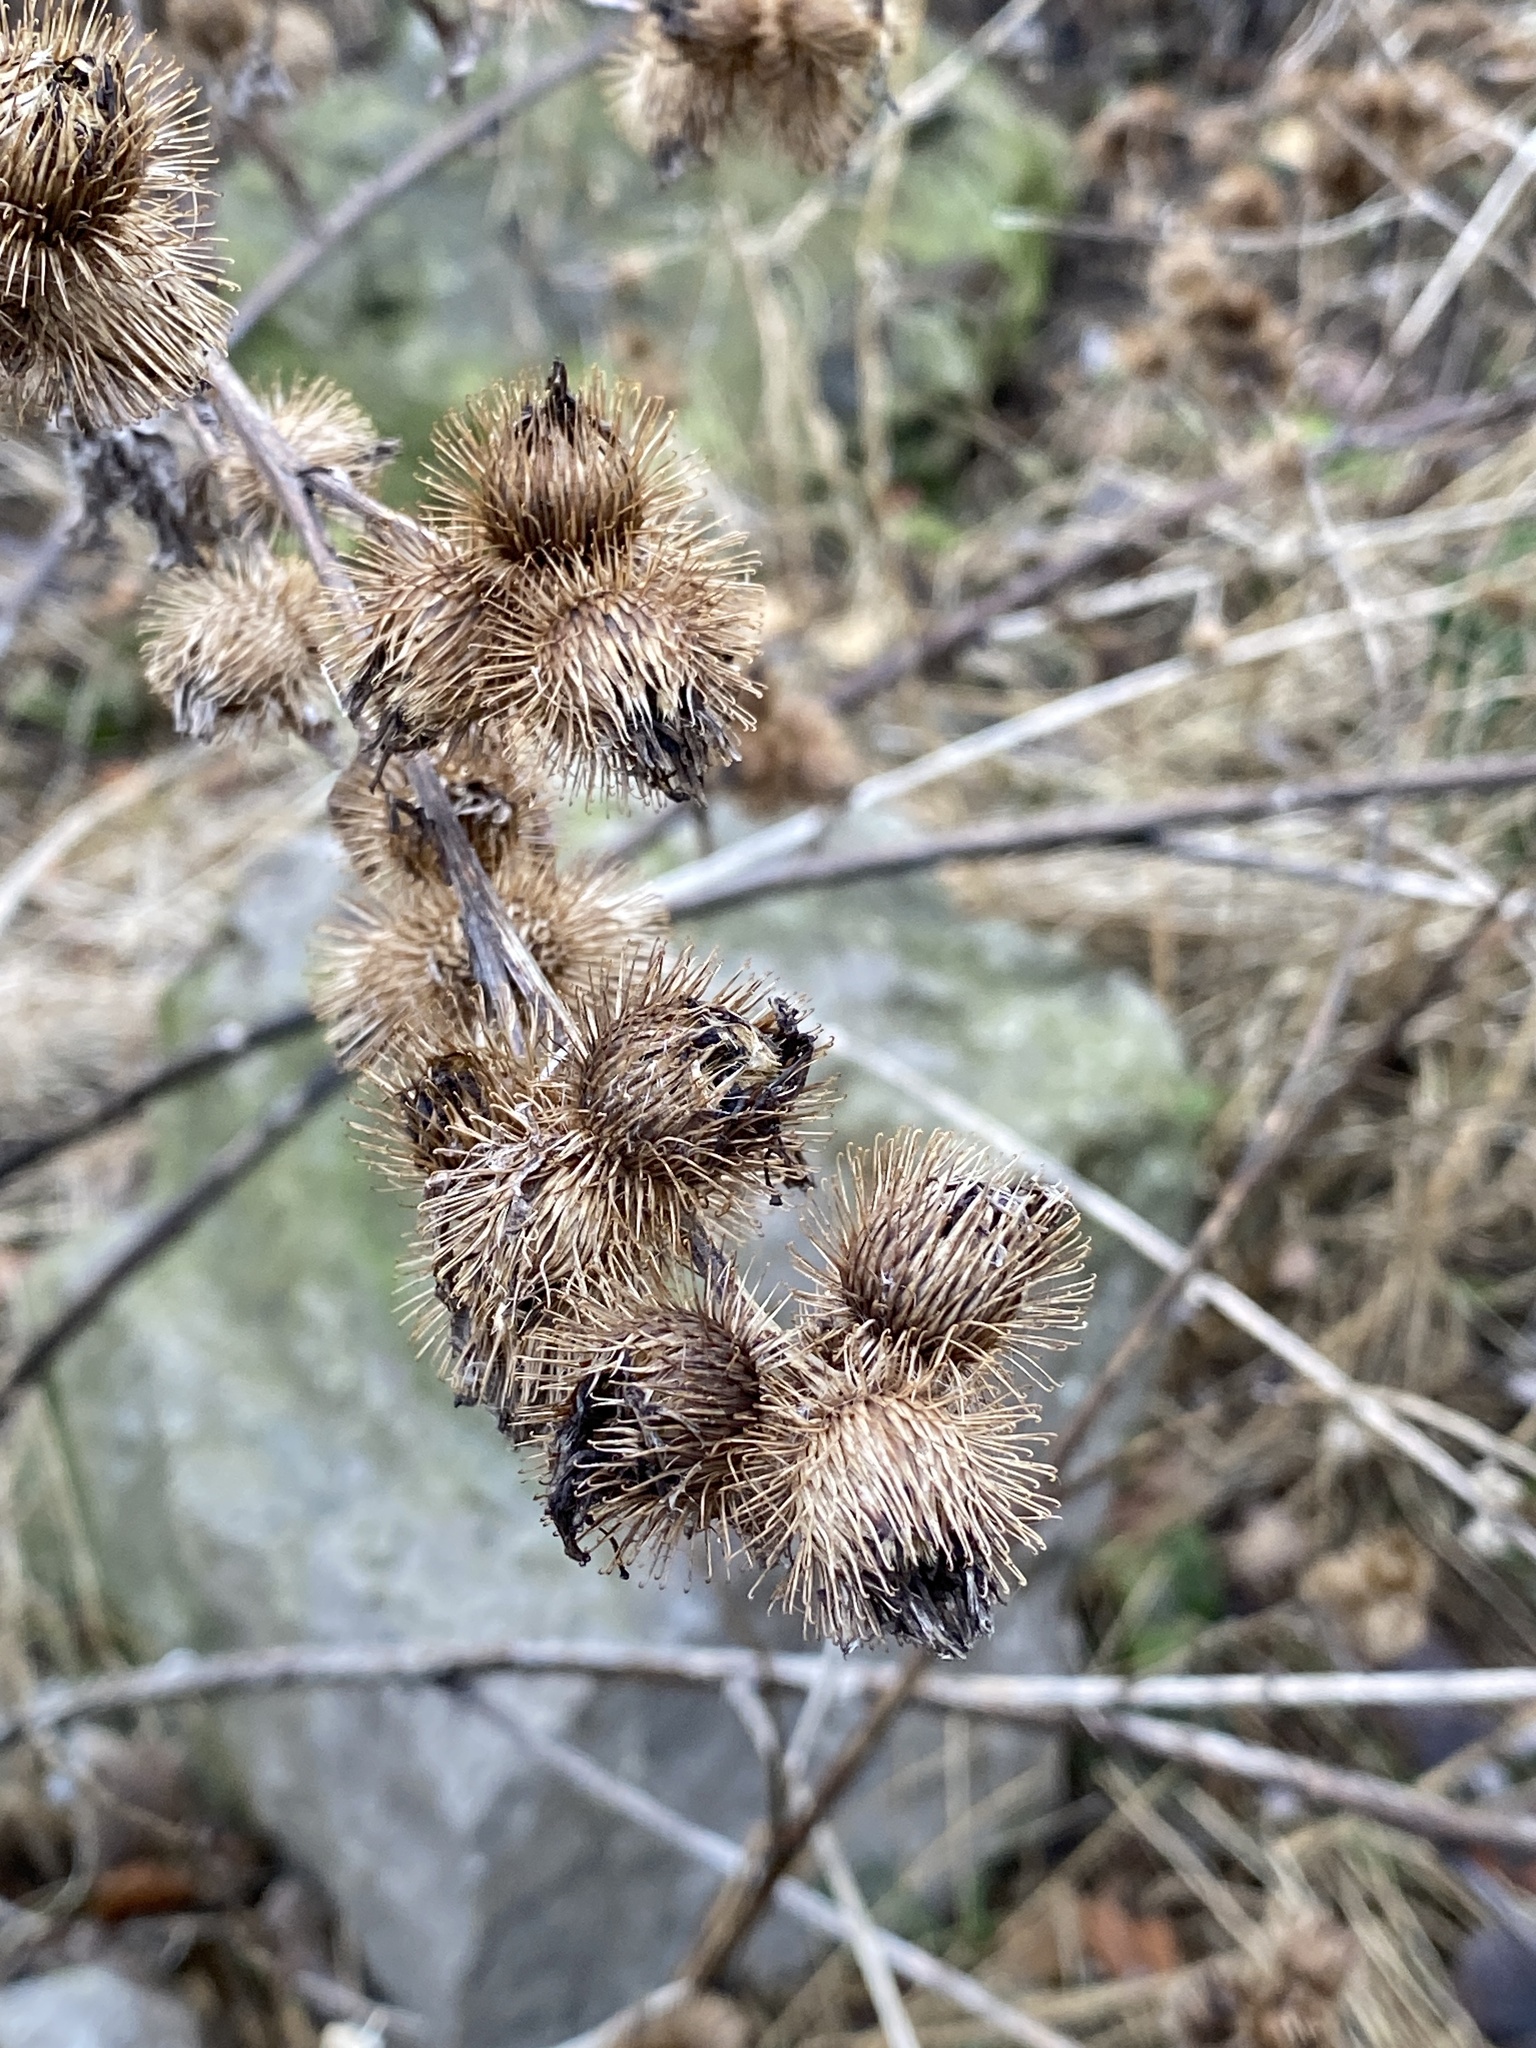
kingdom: Plantae
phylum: Tracheophyta
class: Magnoliopsida
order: Asterales
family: Asteraceae
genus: Arctium
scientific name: Arctium minus
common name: Lesser burdock
